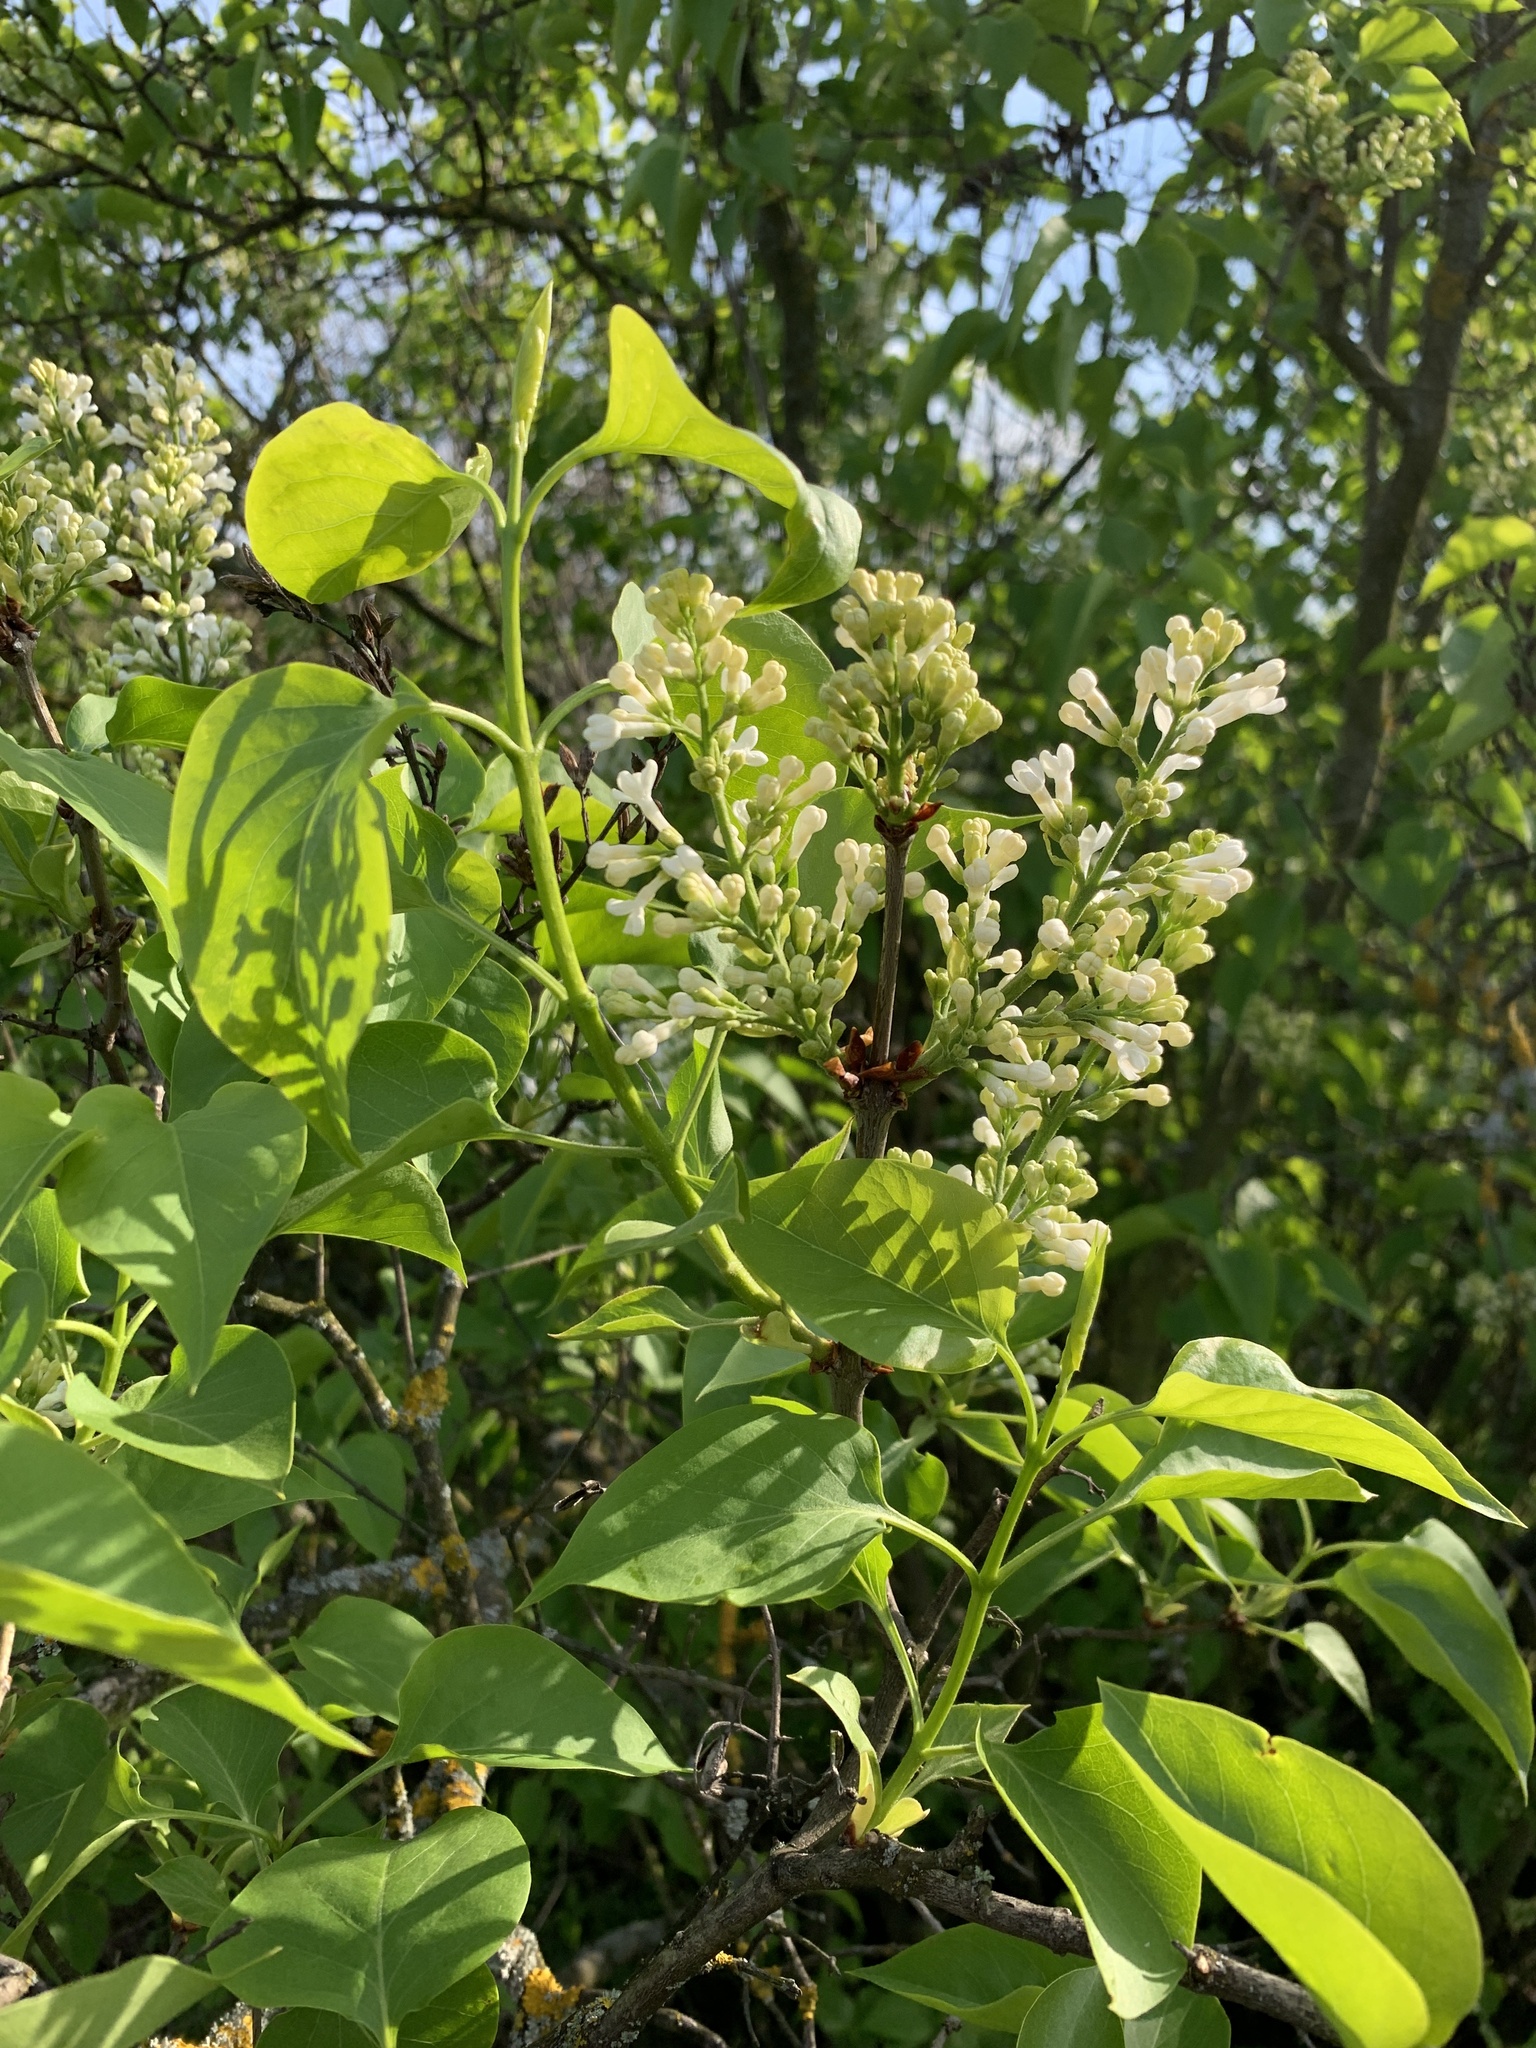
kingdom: Plantae
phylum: Tracheophyta
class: Magnoliopsida
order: Lamiales
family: Oleaceae
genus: Syringa
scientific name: Syringa vulgaris
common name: Common lilac
